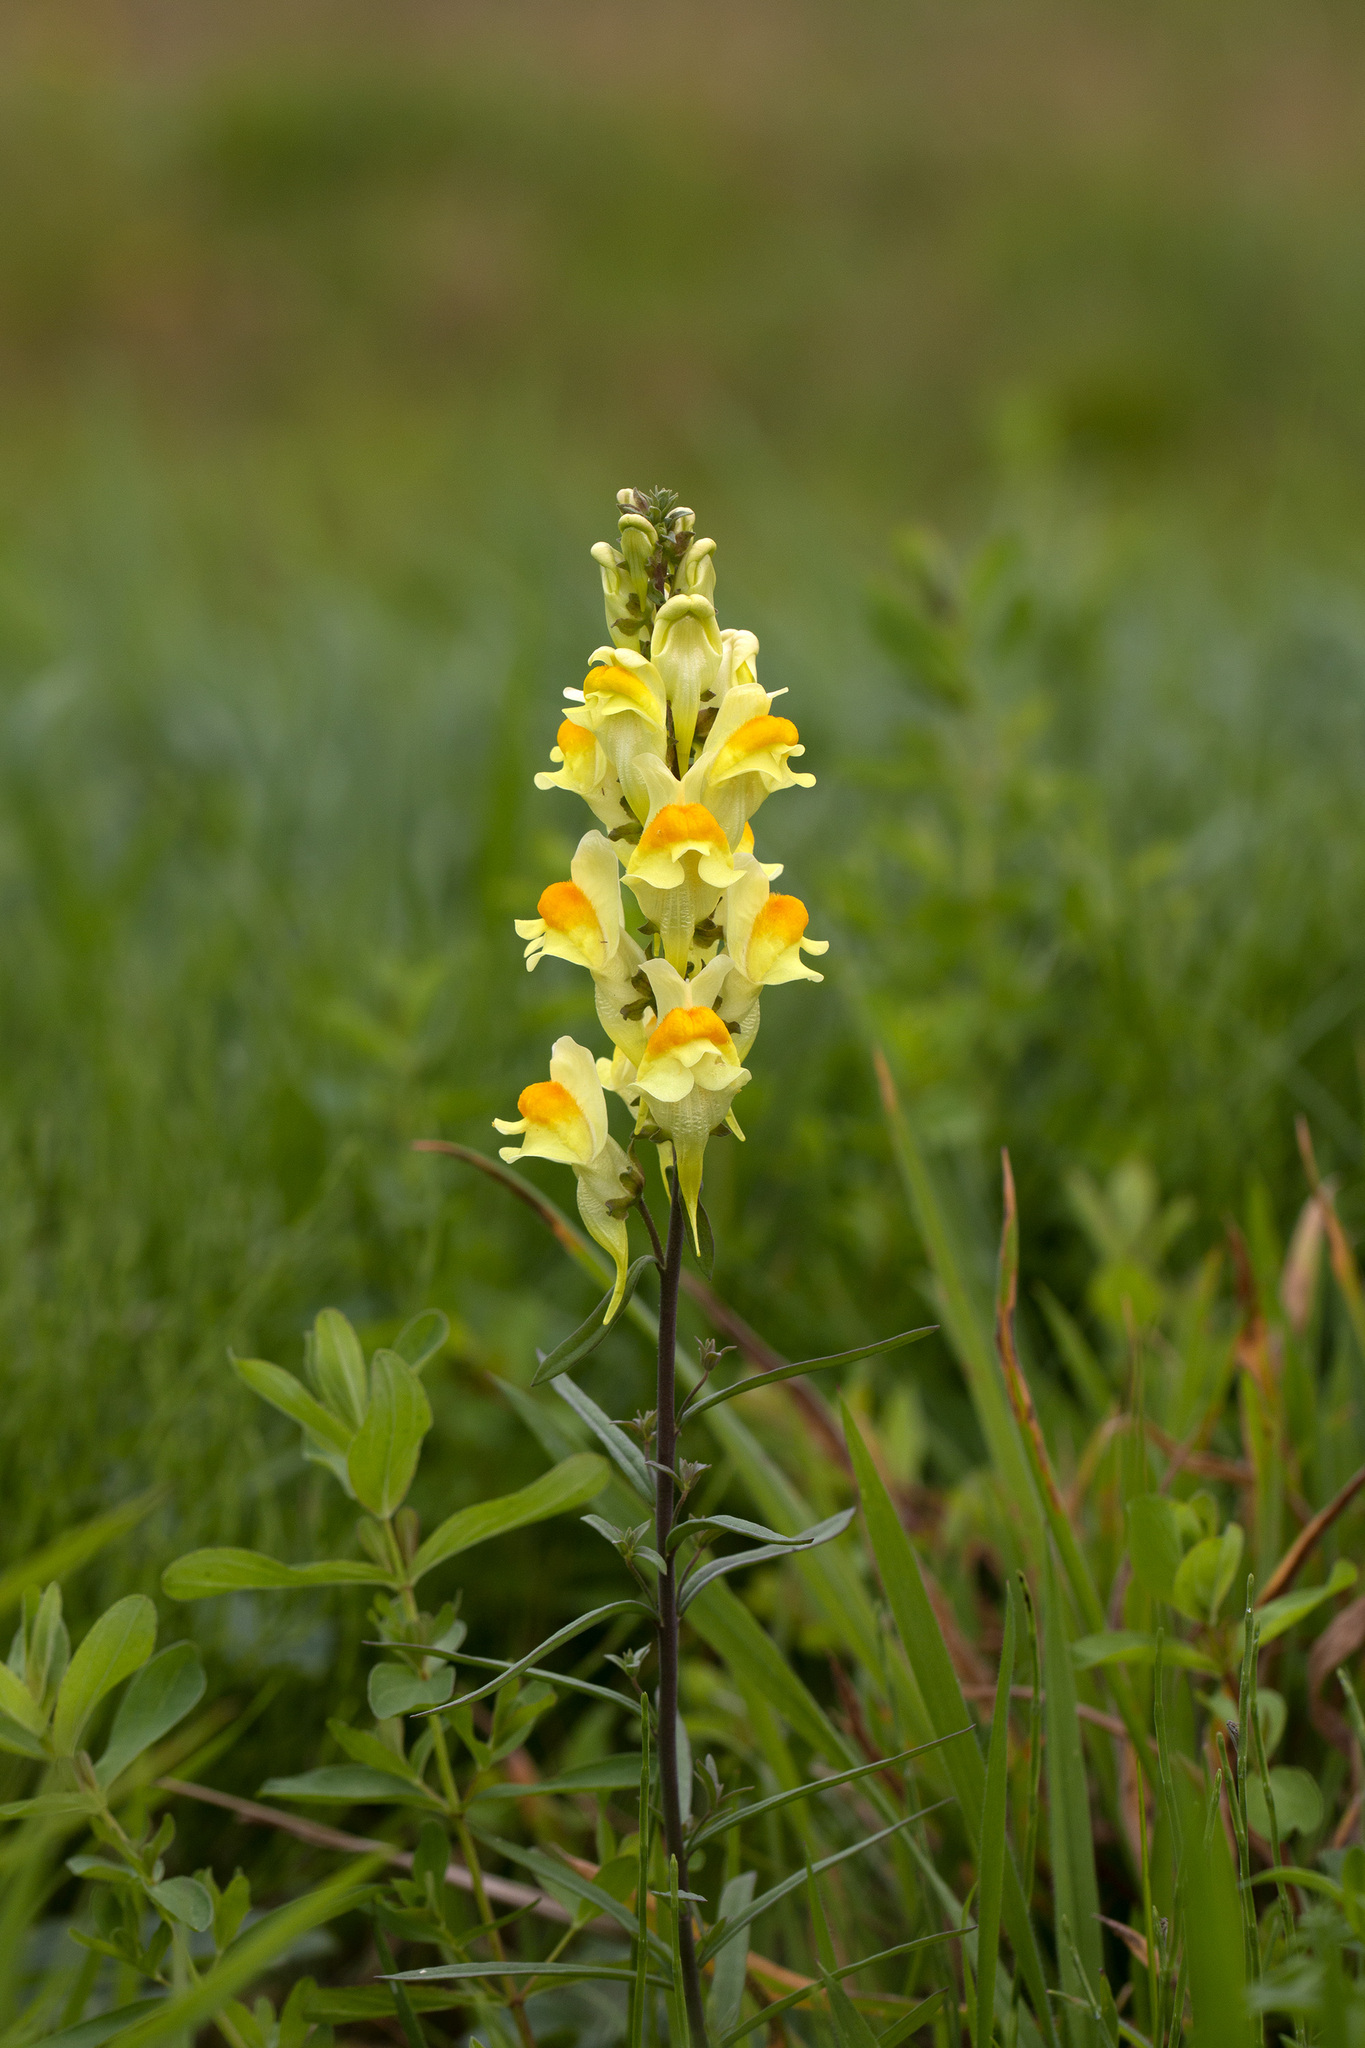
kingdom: Plantae
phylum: Tracheophyta
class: Magnoliopsida
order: Lamiales
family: Plantaginaceae
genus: Linaria
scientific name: Linaria vulgaris
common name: Butter and eggs
